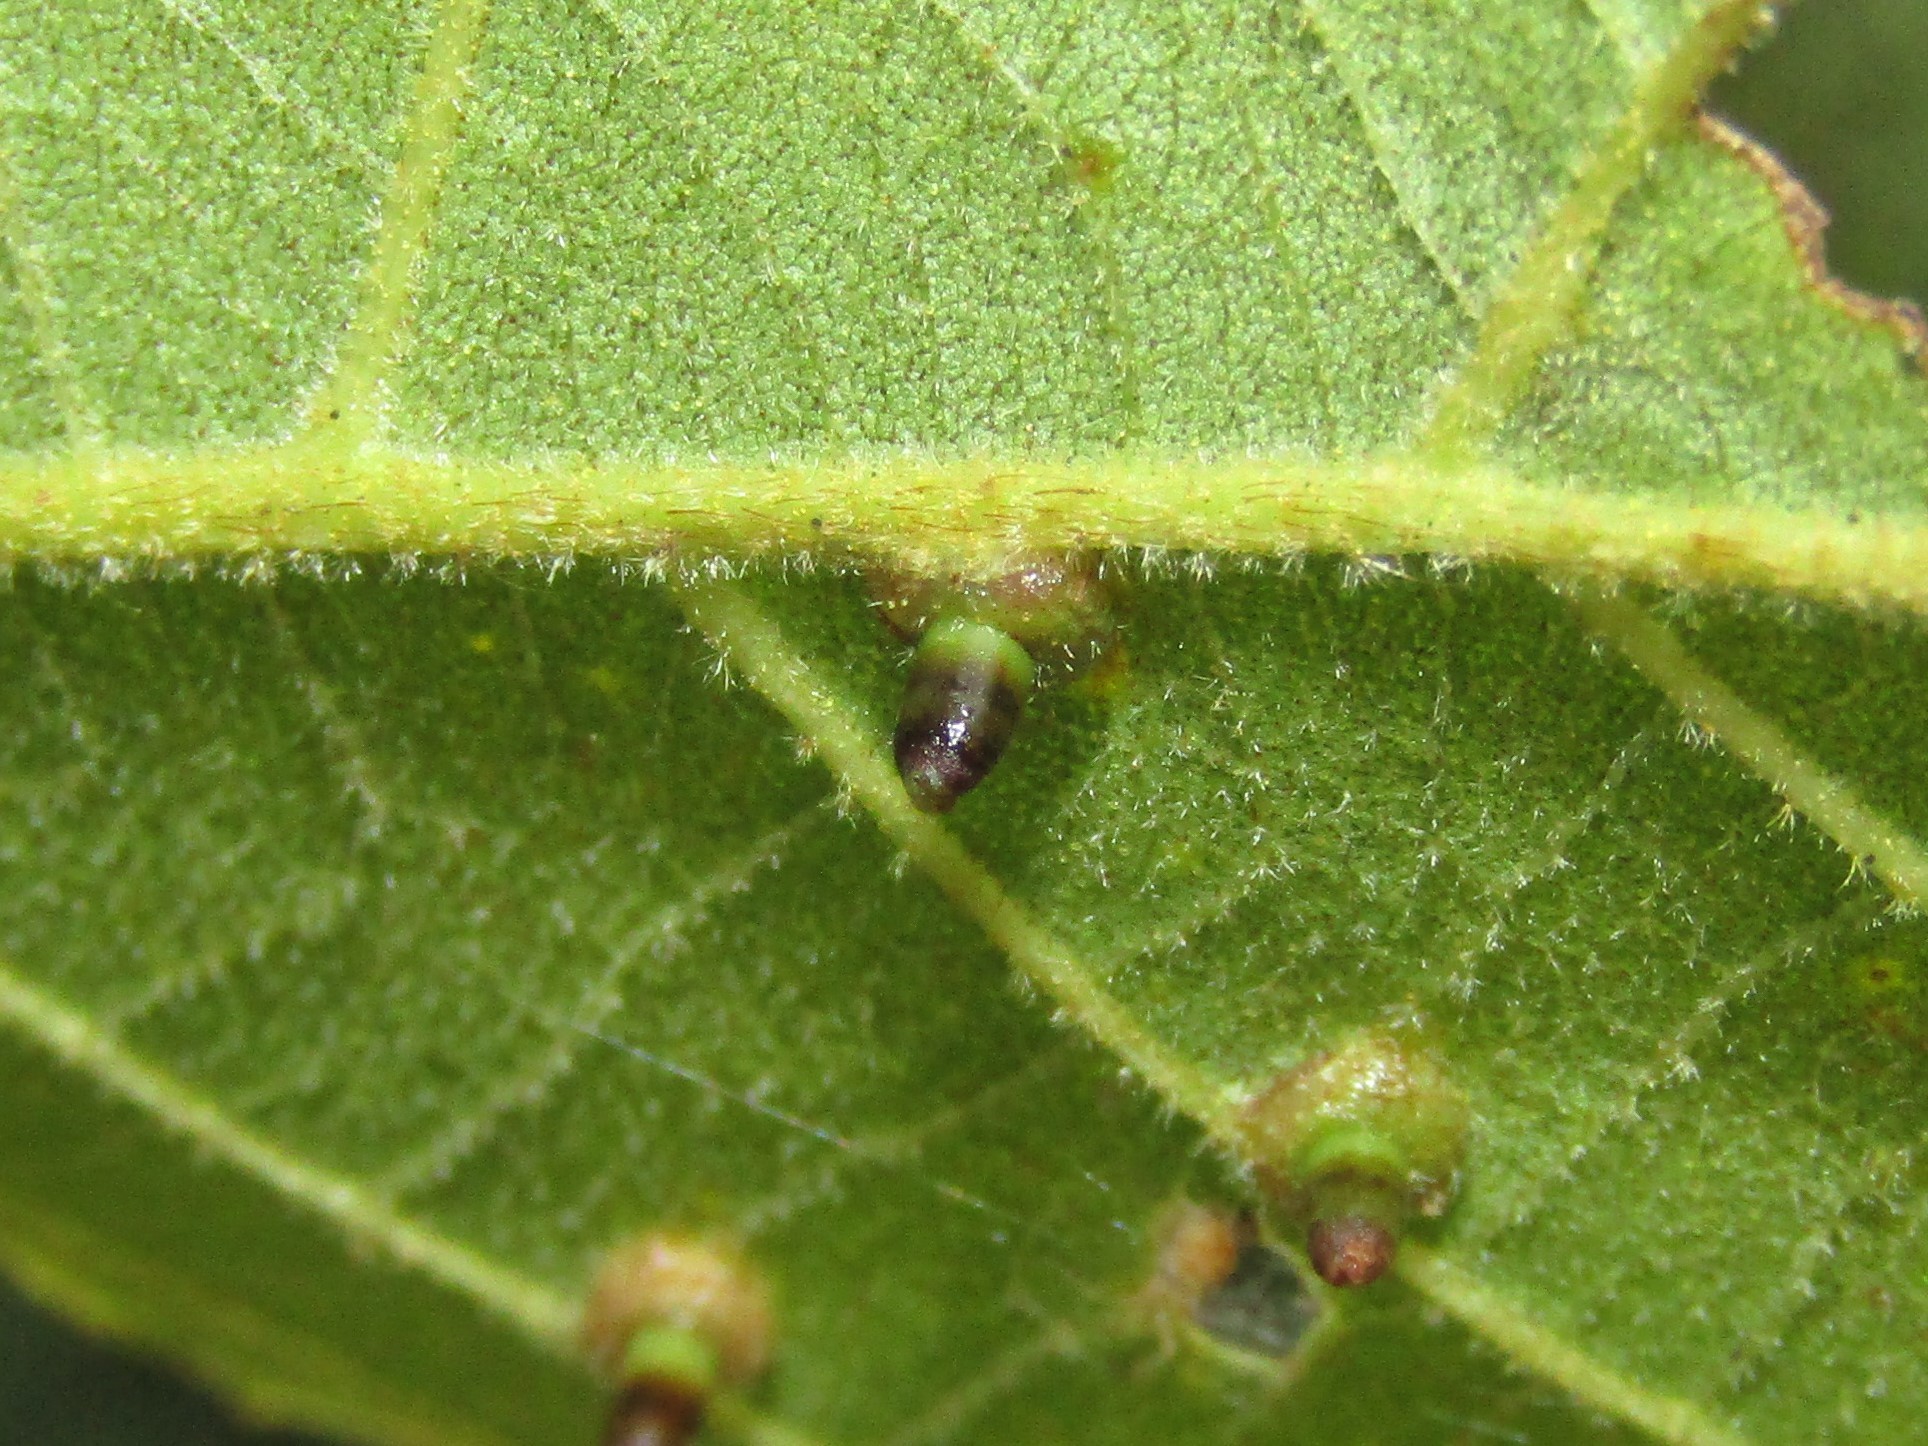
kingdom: Animalia
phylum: Arthropoda
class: Insecta
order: Diptera
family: Cecidomyiidae
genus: Caryomyia
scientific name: Caryomyia tubicola
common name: Hickory bullet gall midge
